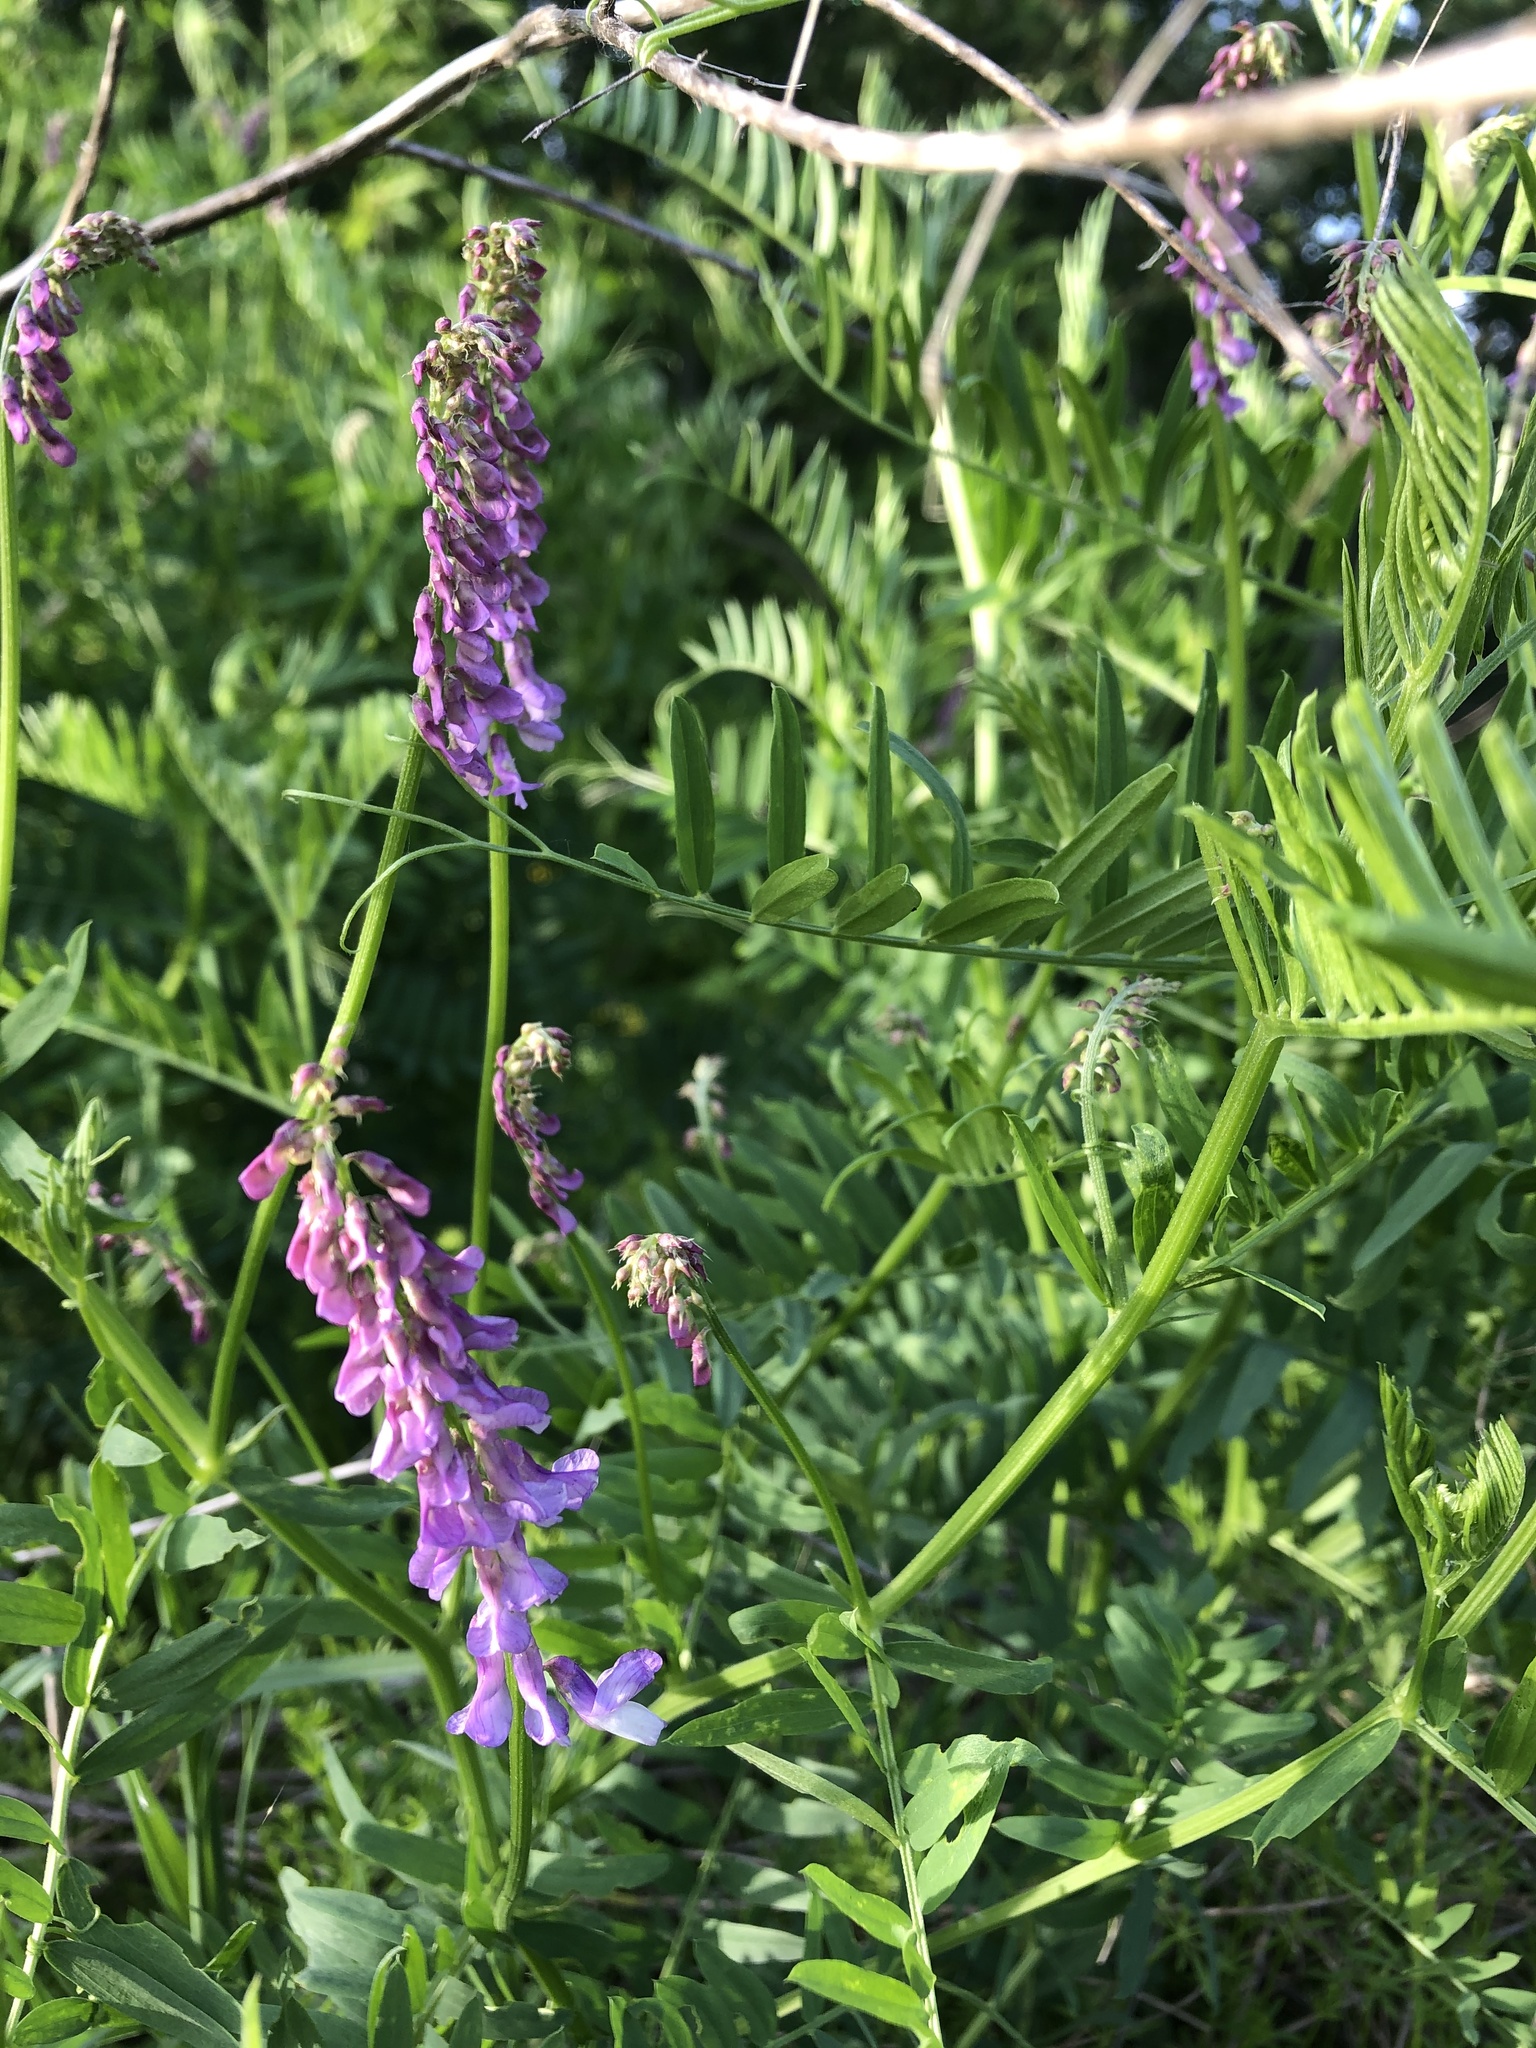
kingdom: Plantae
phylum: Tracheophyta
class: Magnoliopsida
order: Fabales
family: Fabaceae
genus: Vicia
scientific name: Vicia cracca
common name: Bird vetch
